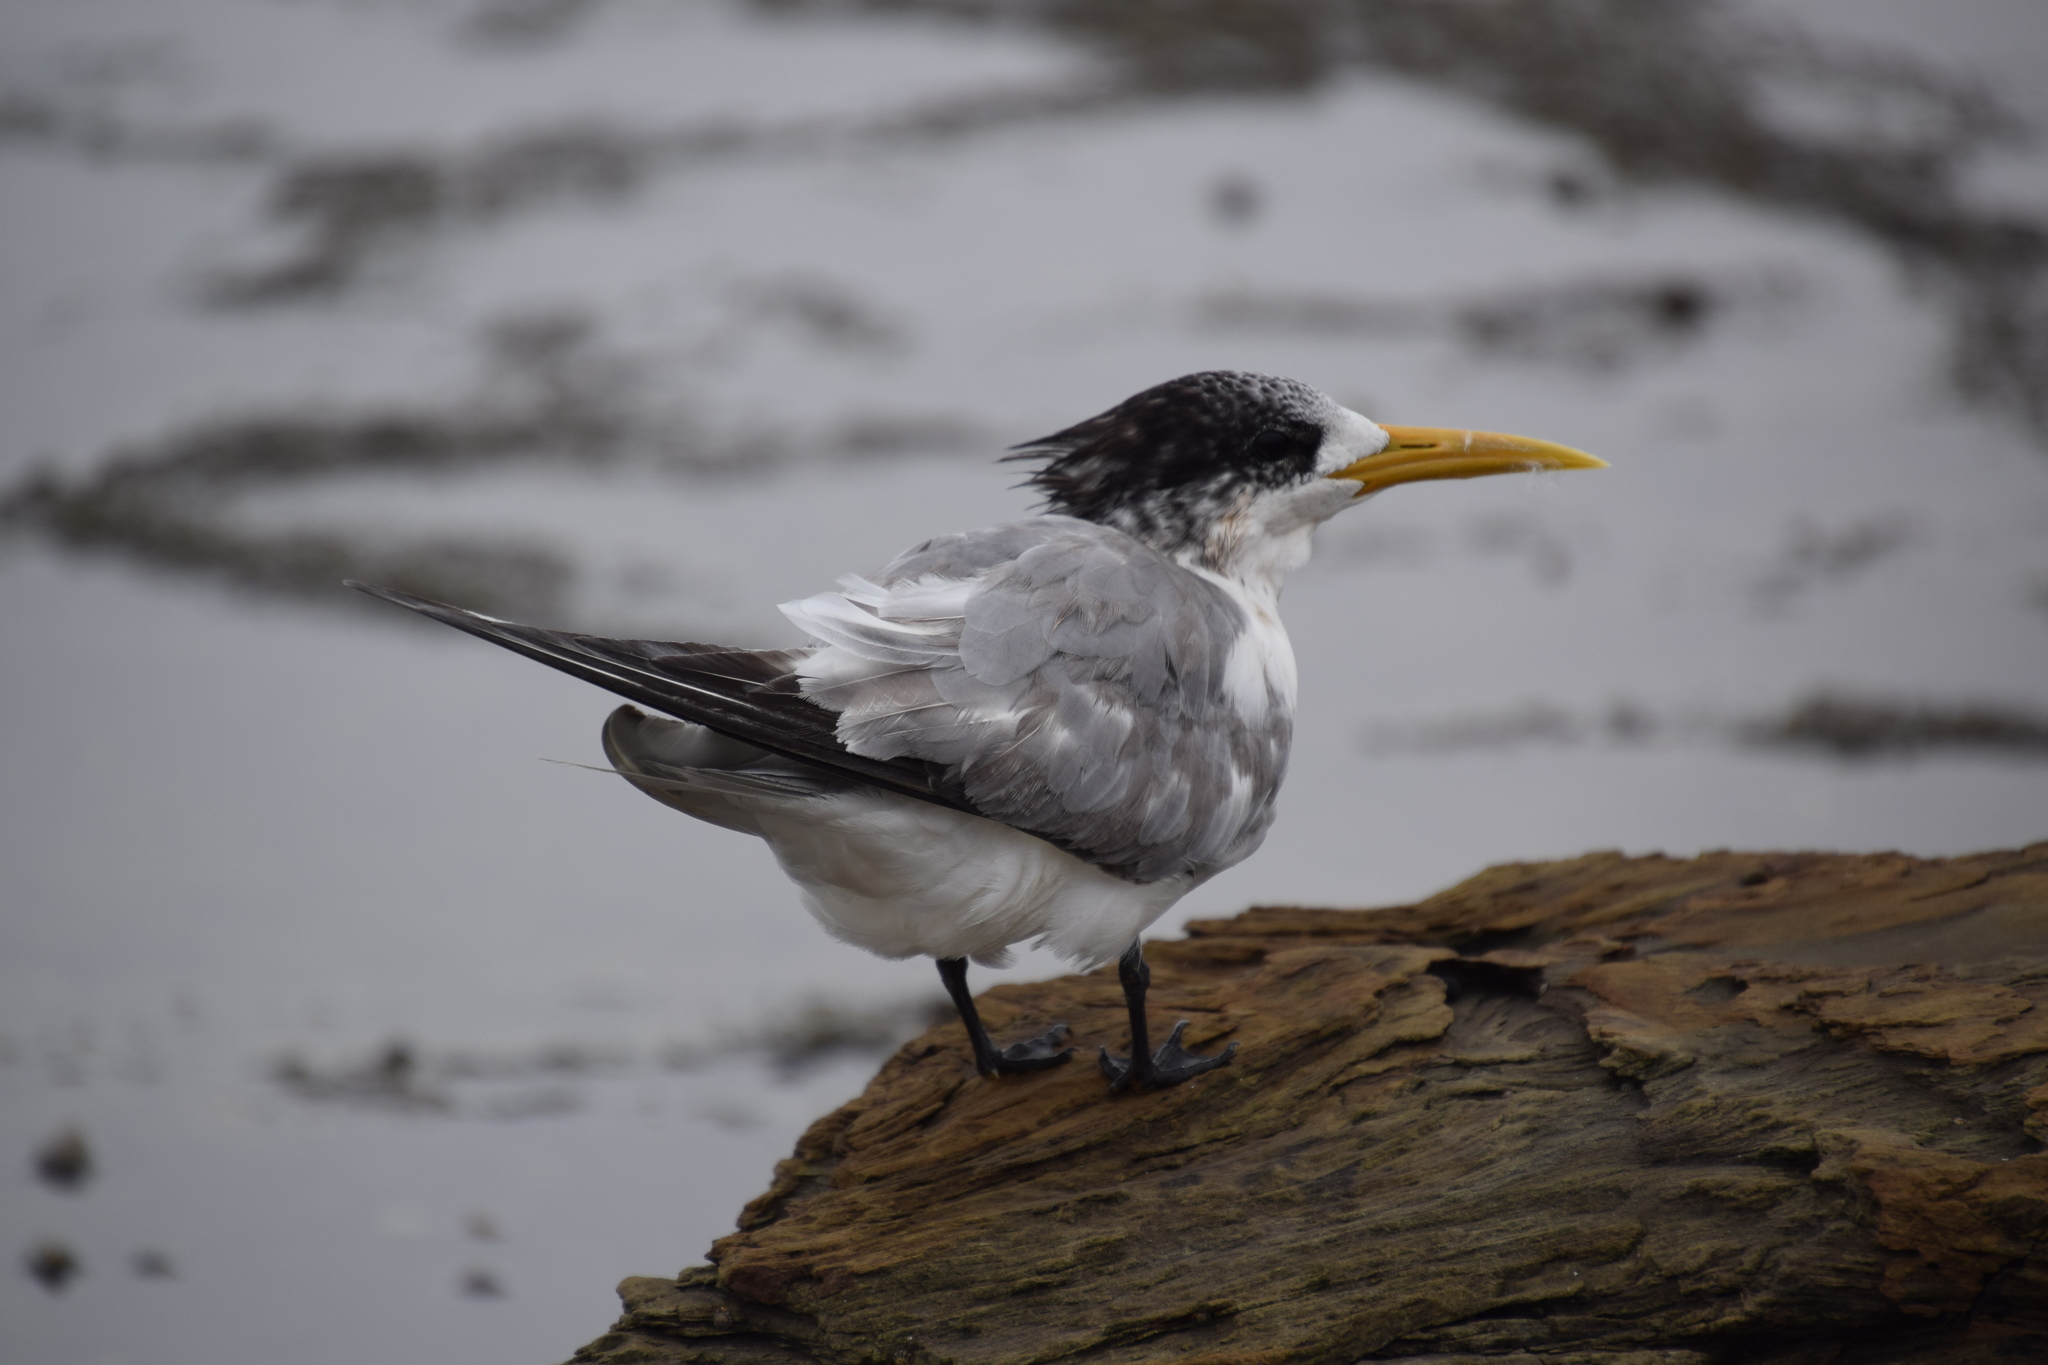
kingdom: Animalia
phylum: Chordata
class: Aves
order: Charadriiformes
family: Laridae
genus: Thalasseus
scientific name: Thalasseus bergii
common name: Greater crested tern
